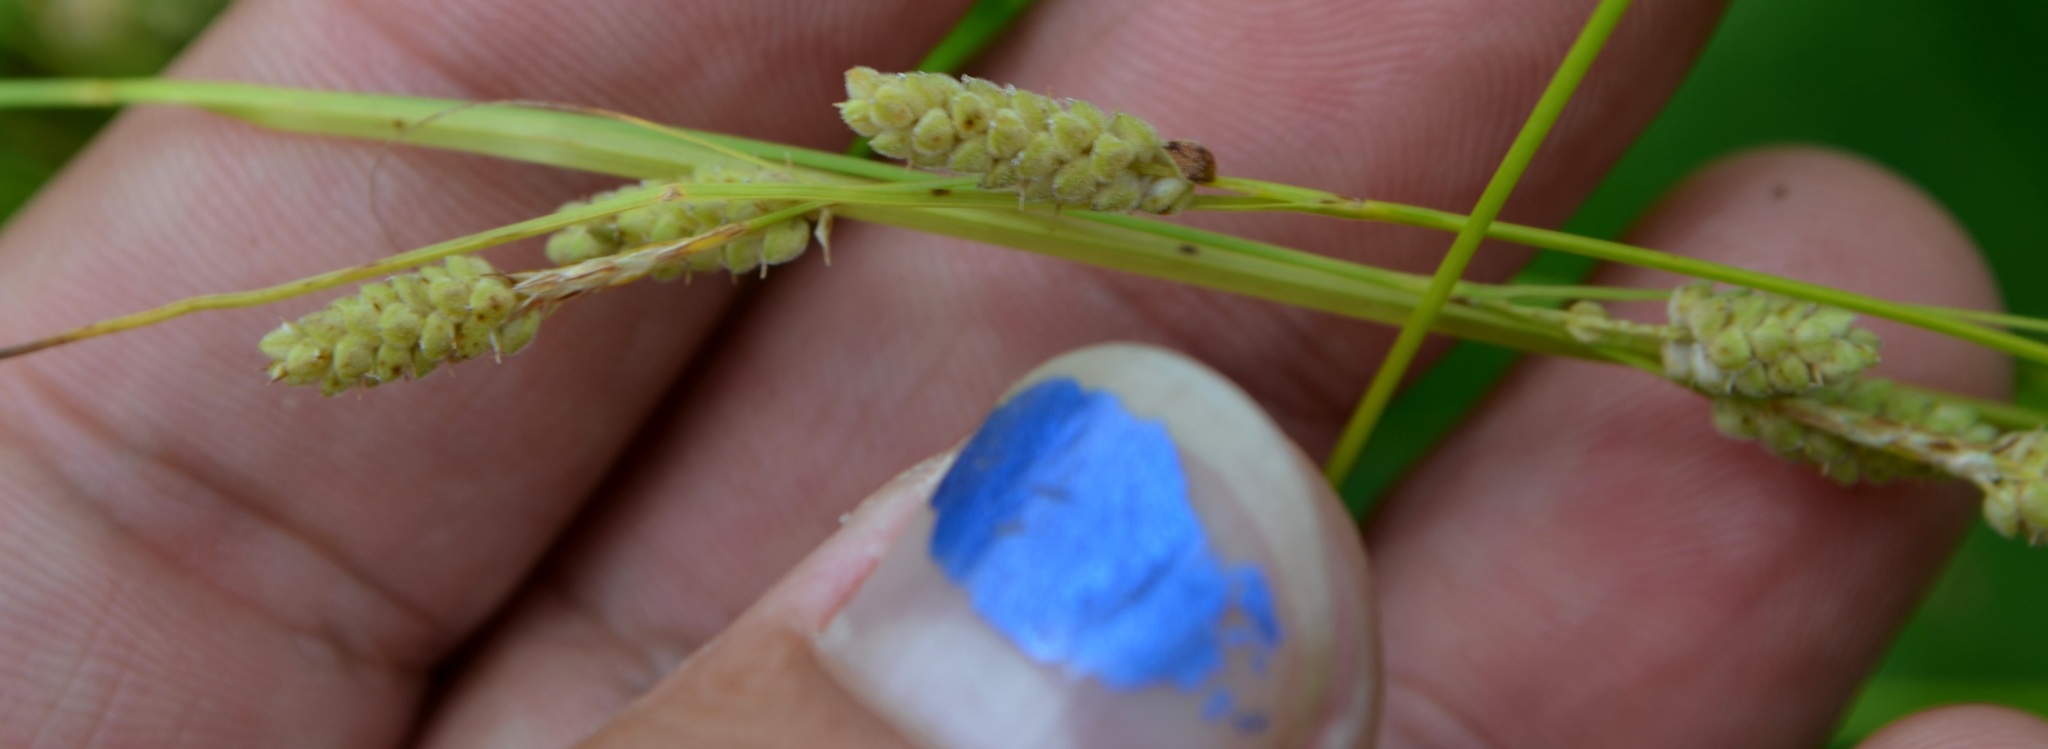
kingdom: Plantae
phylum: Tracheophyta
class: Liliopsida
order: Poales
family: Cyperaceae
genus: Carex
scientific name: Carex swanii
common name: Downy green sedge
